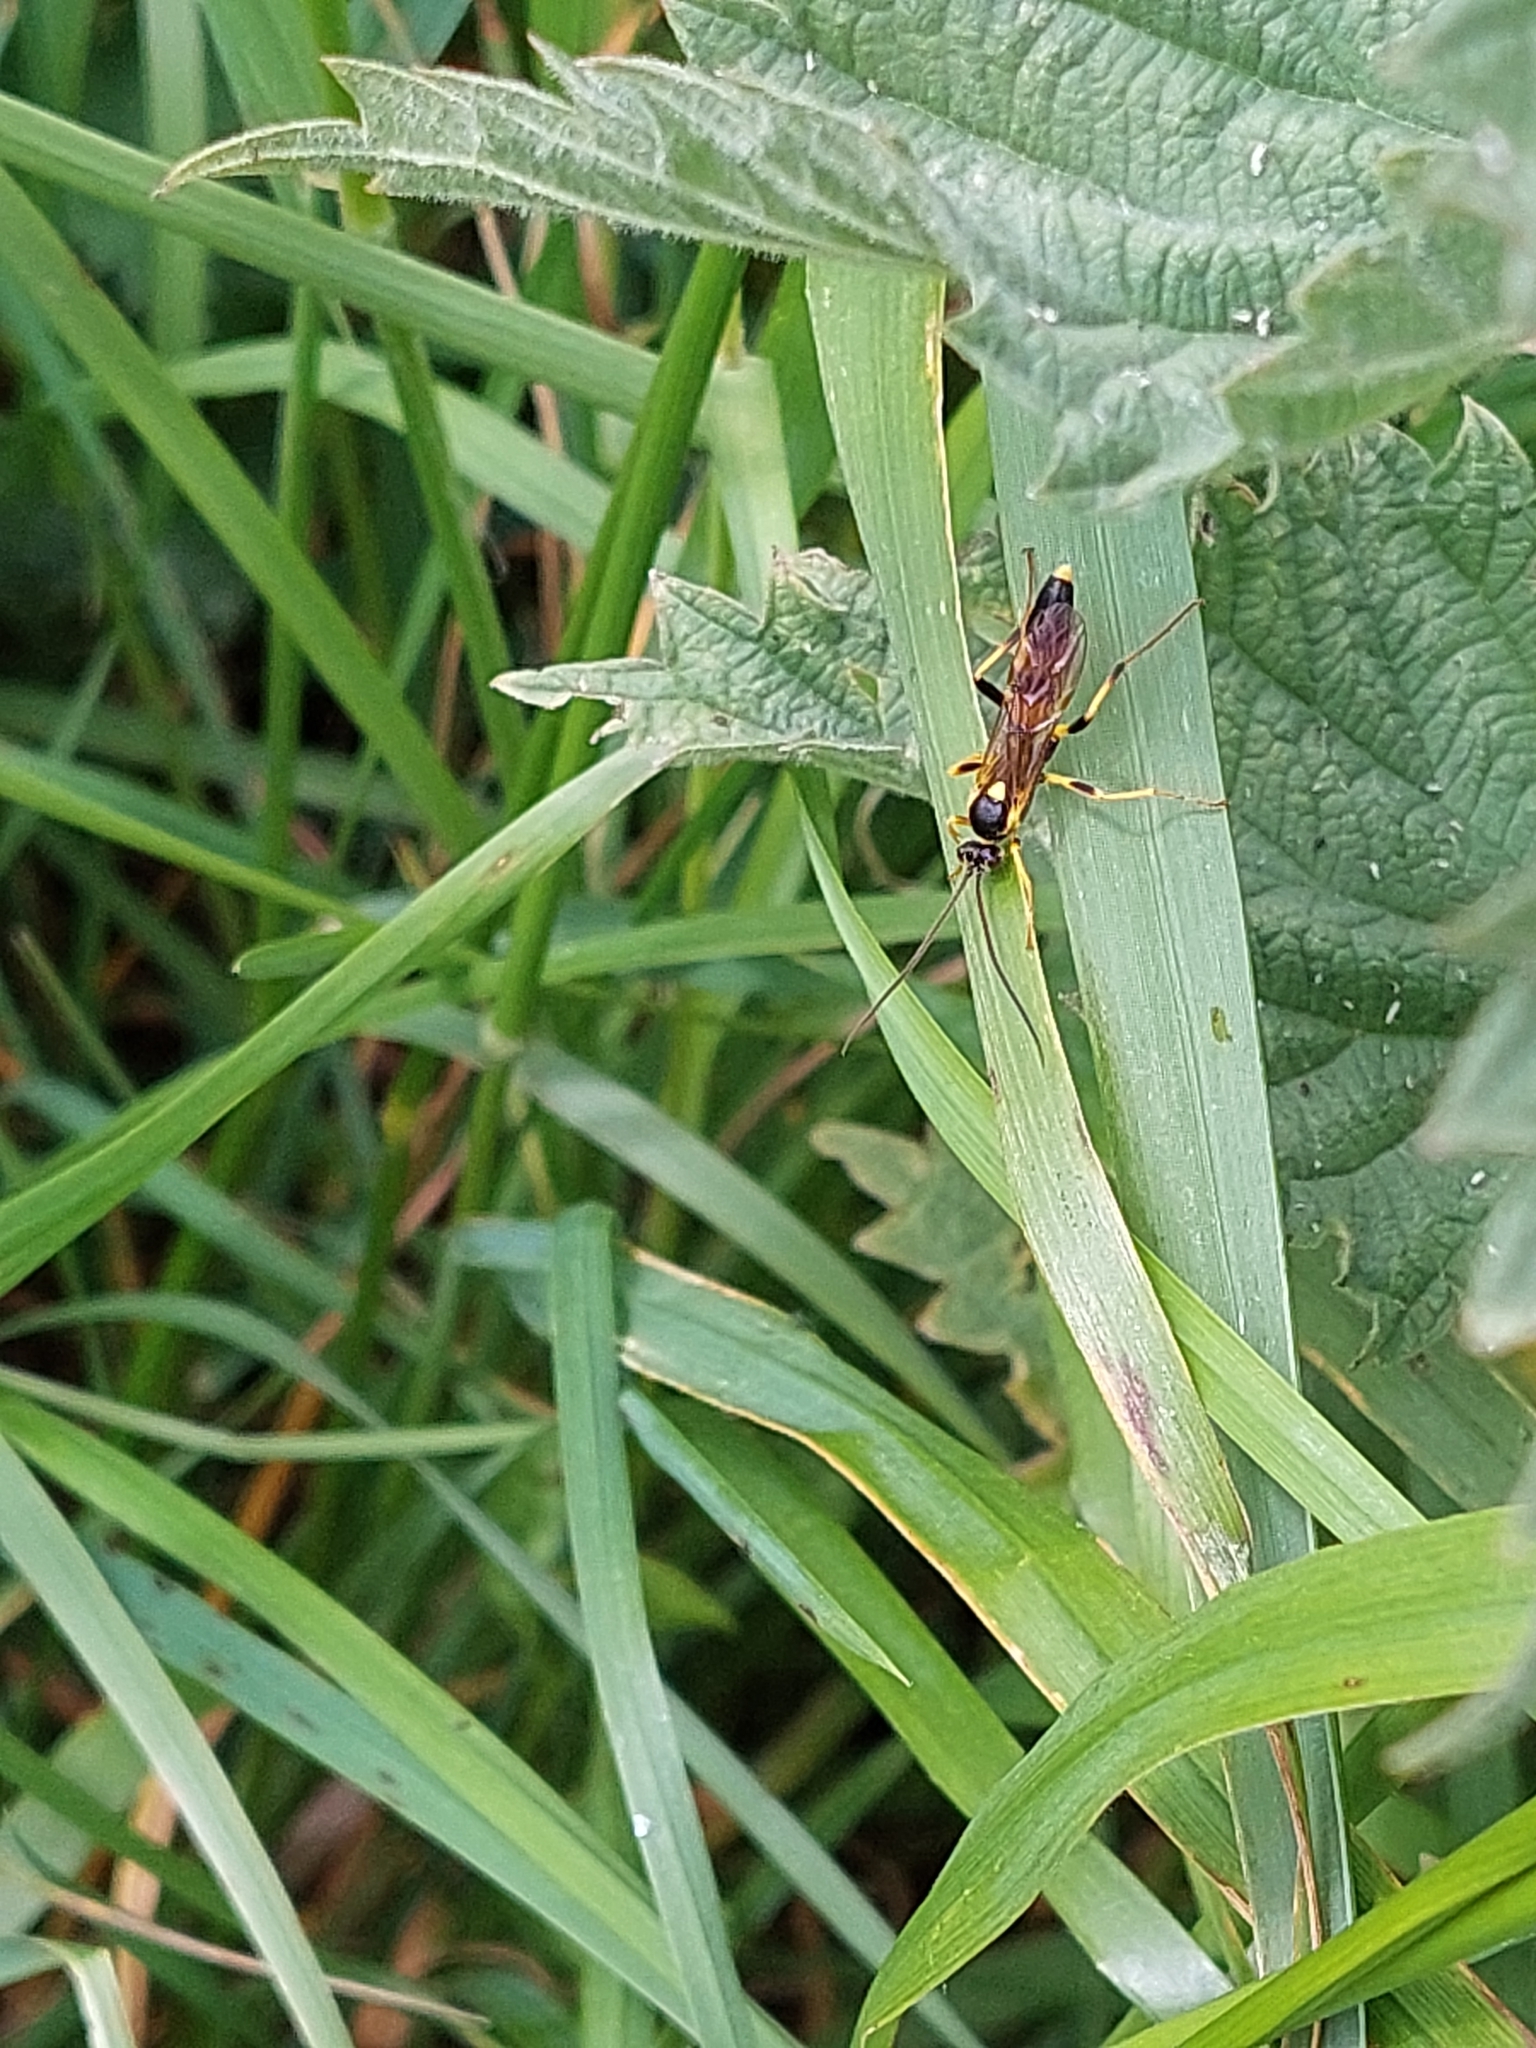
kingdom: Animalia
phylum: Arthropoda
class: Insecta
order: Hymenoptera
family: Ichneumonidae
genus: Amblyteles
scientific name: Amblyteles armatorius
